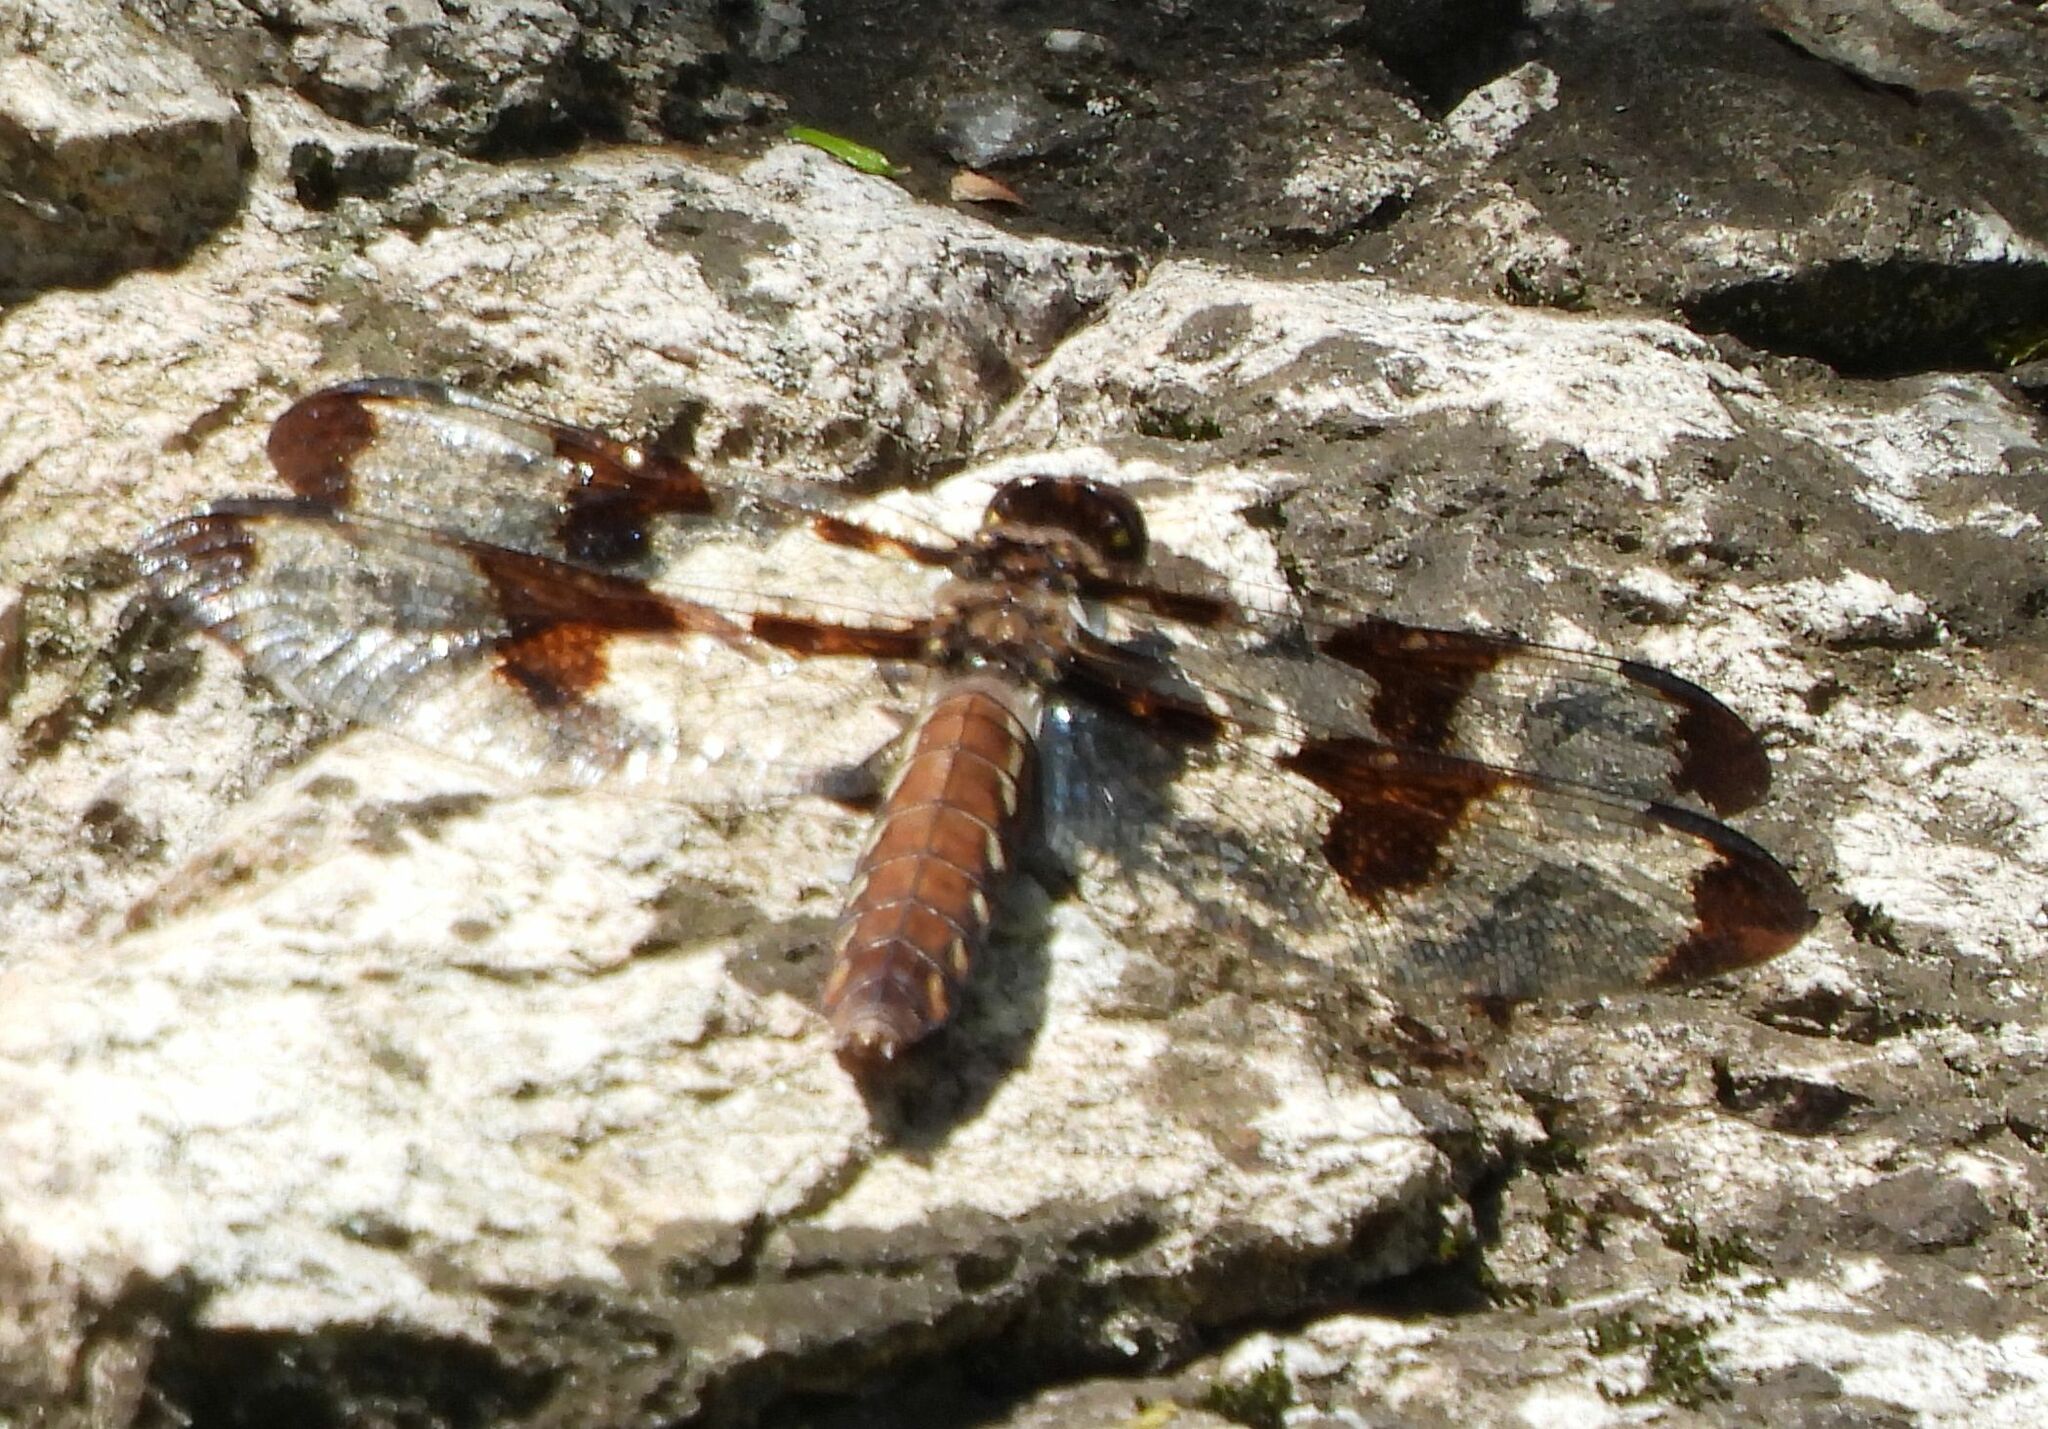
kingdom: Animalia
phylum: Arthropoda
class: Insecta
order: Odonata
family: Libellulidae
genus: Plathemis
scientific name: Plathemis lydia
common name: Common whitetail
